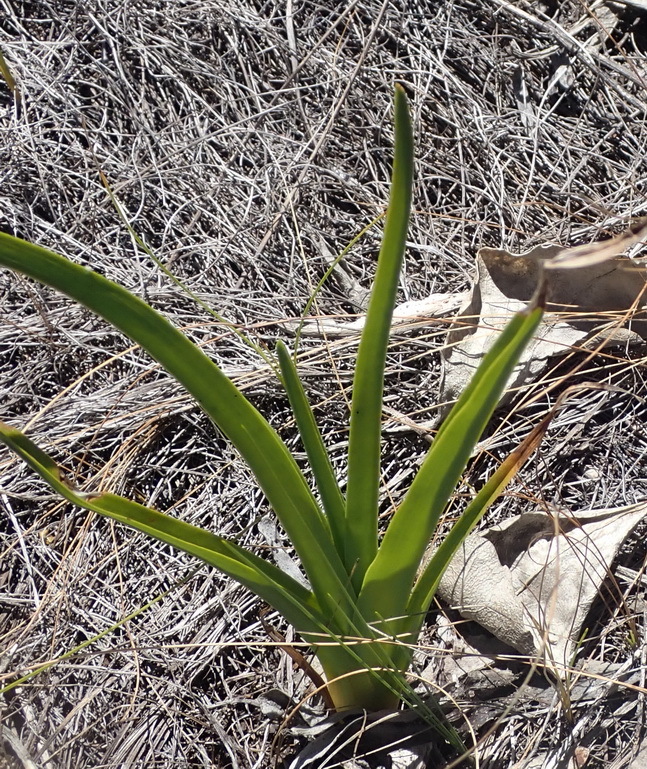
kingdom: Plantae
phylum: Tracheophyta
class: Liliopsida
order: Asparagales
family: Orchidaceae
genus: Eulophia
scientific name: Eulophia cochlearis
